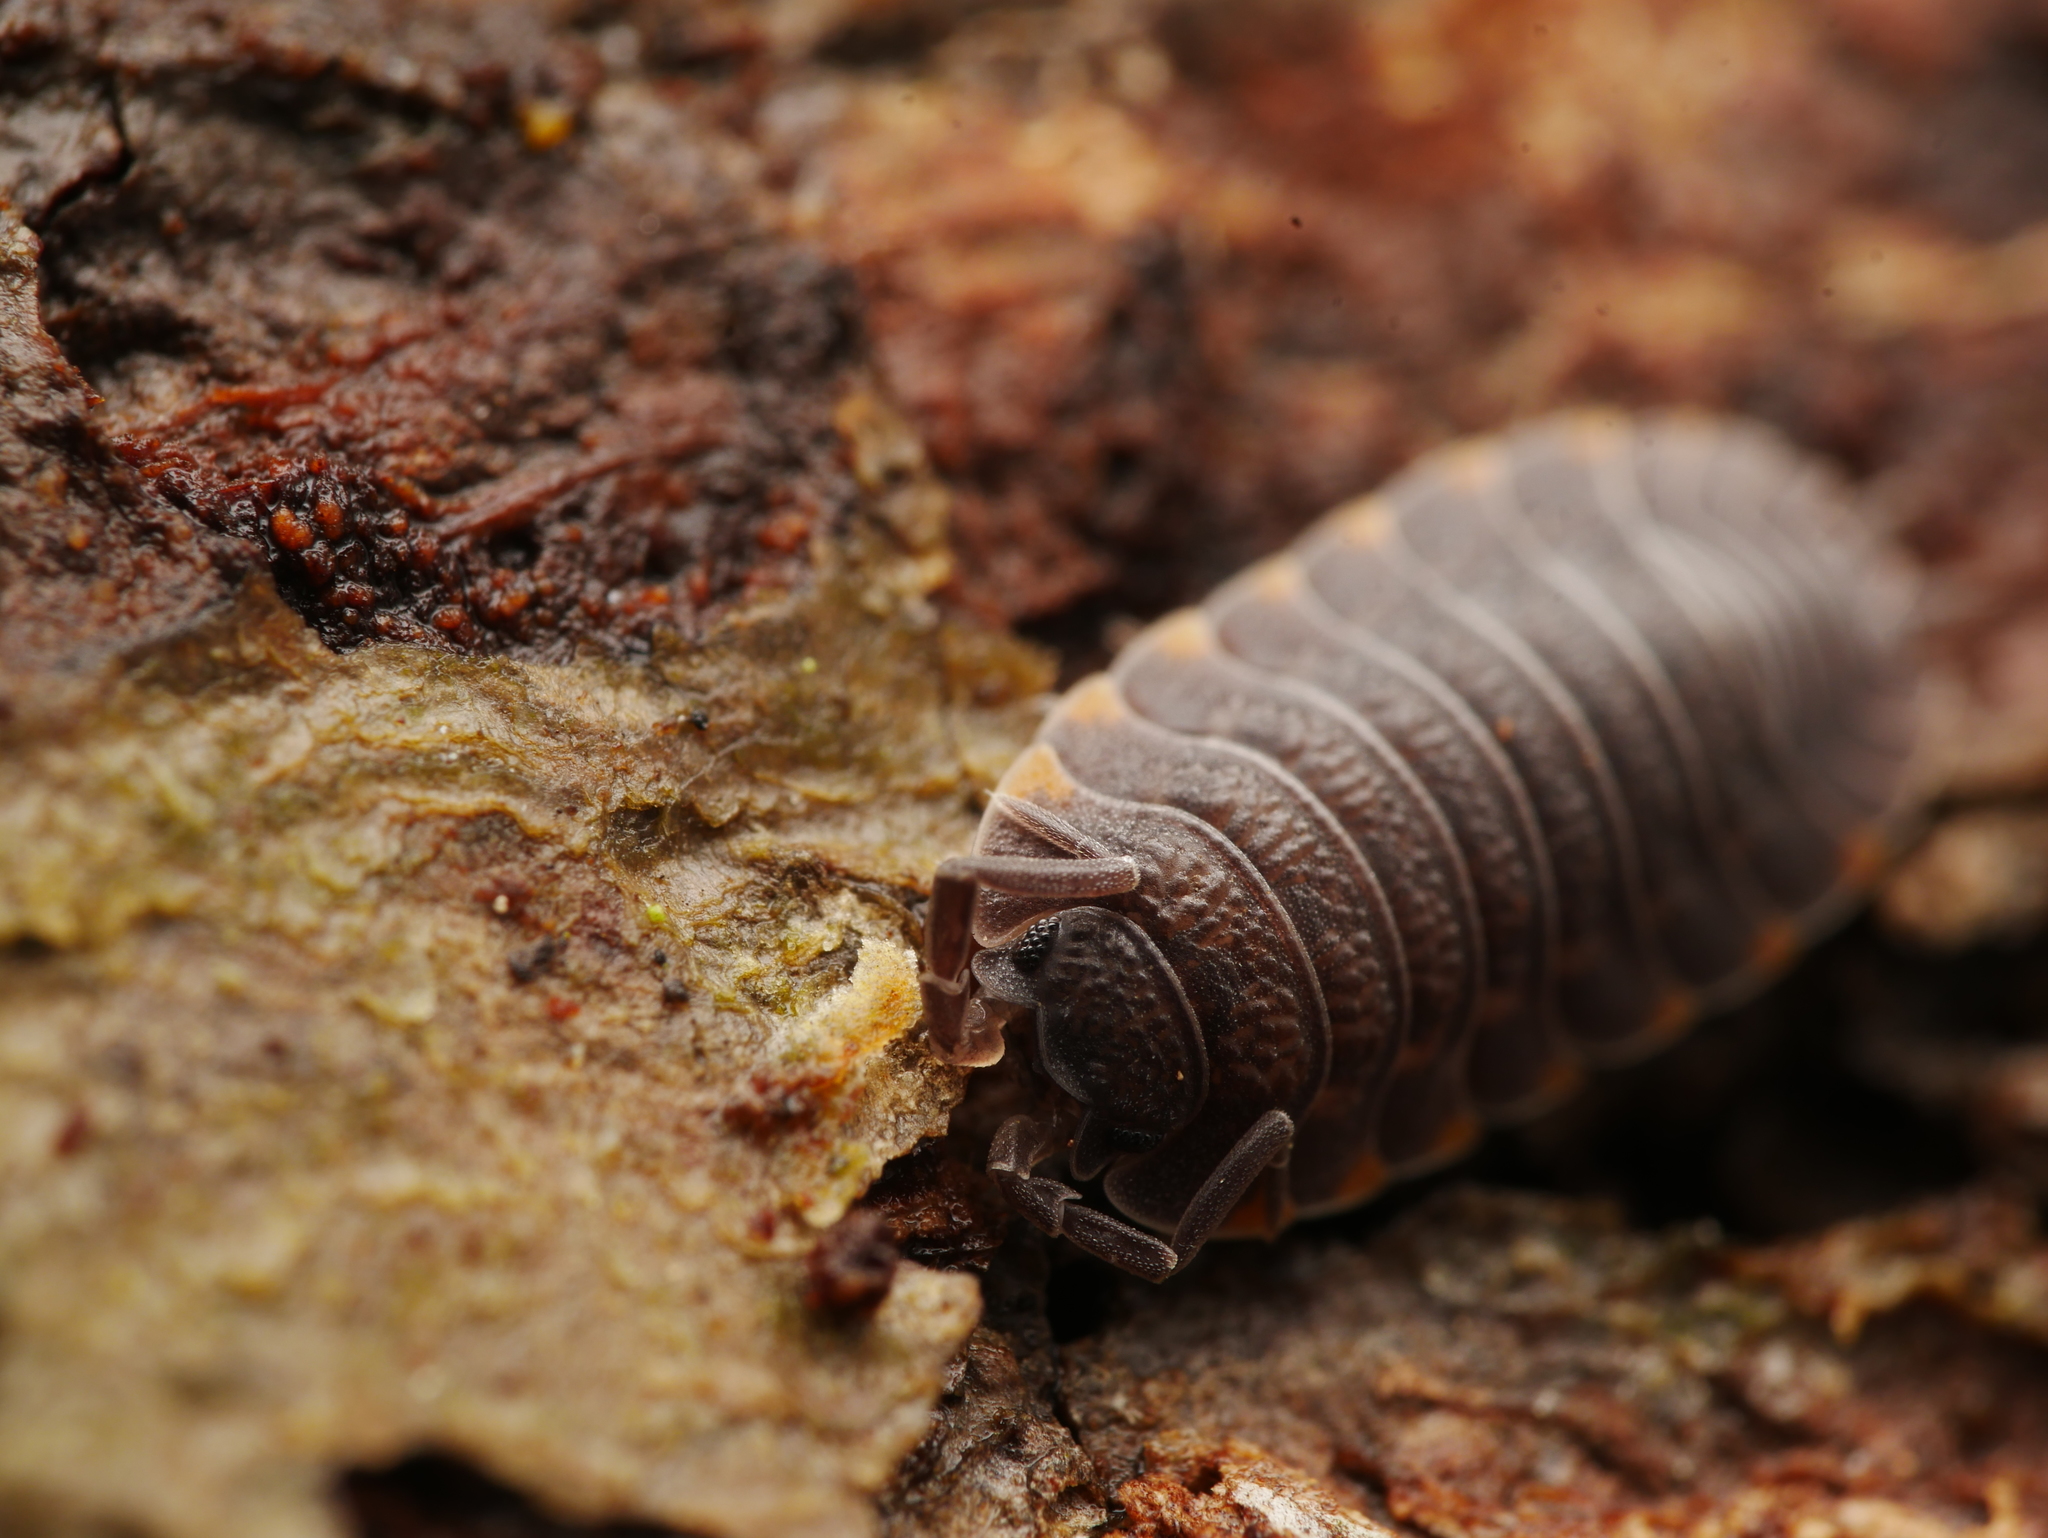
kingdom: Animalia
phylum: Arthropoda
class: Malacostraca
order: Isopoda
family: Trachelipodidae
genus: Trachelipus
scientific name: Trachelipus ratzeburgii
